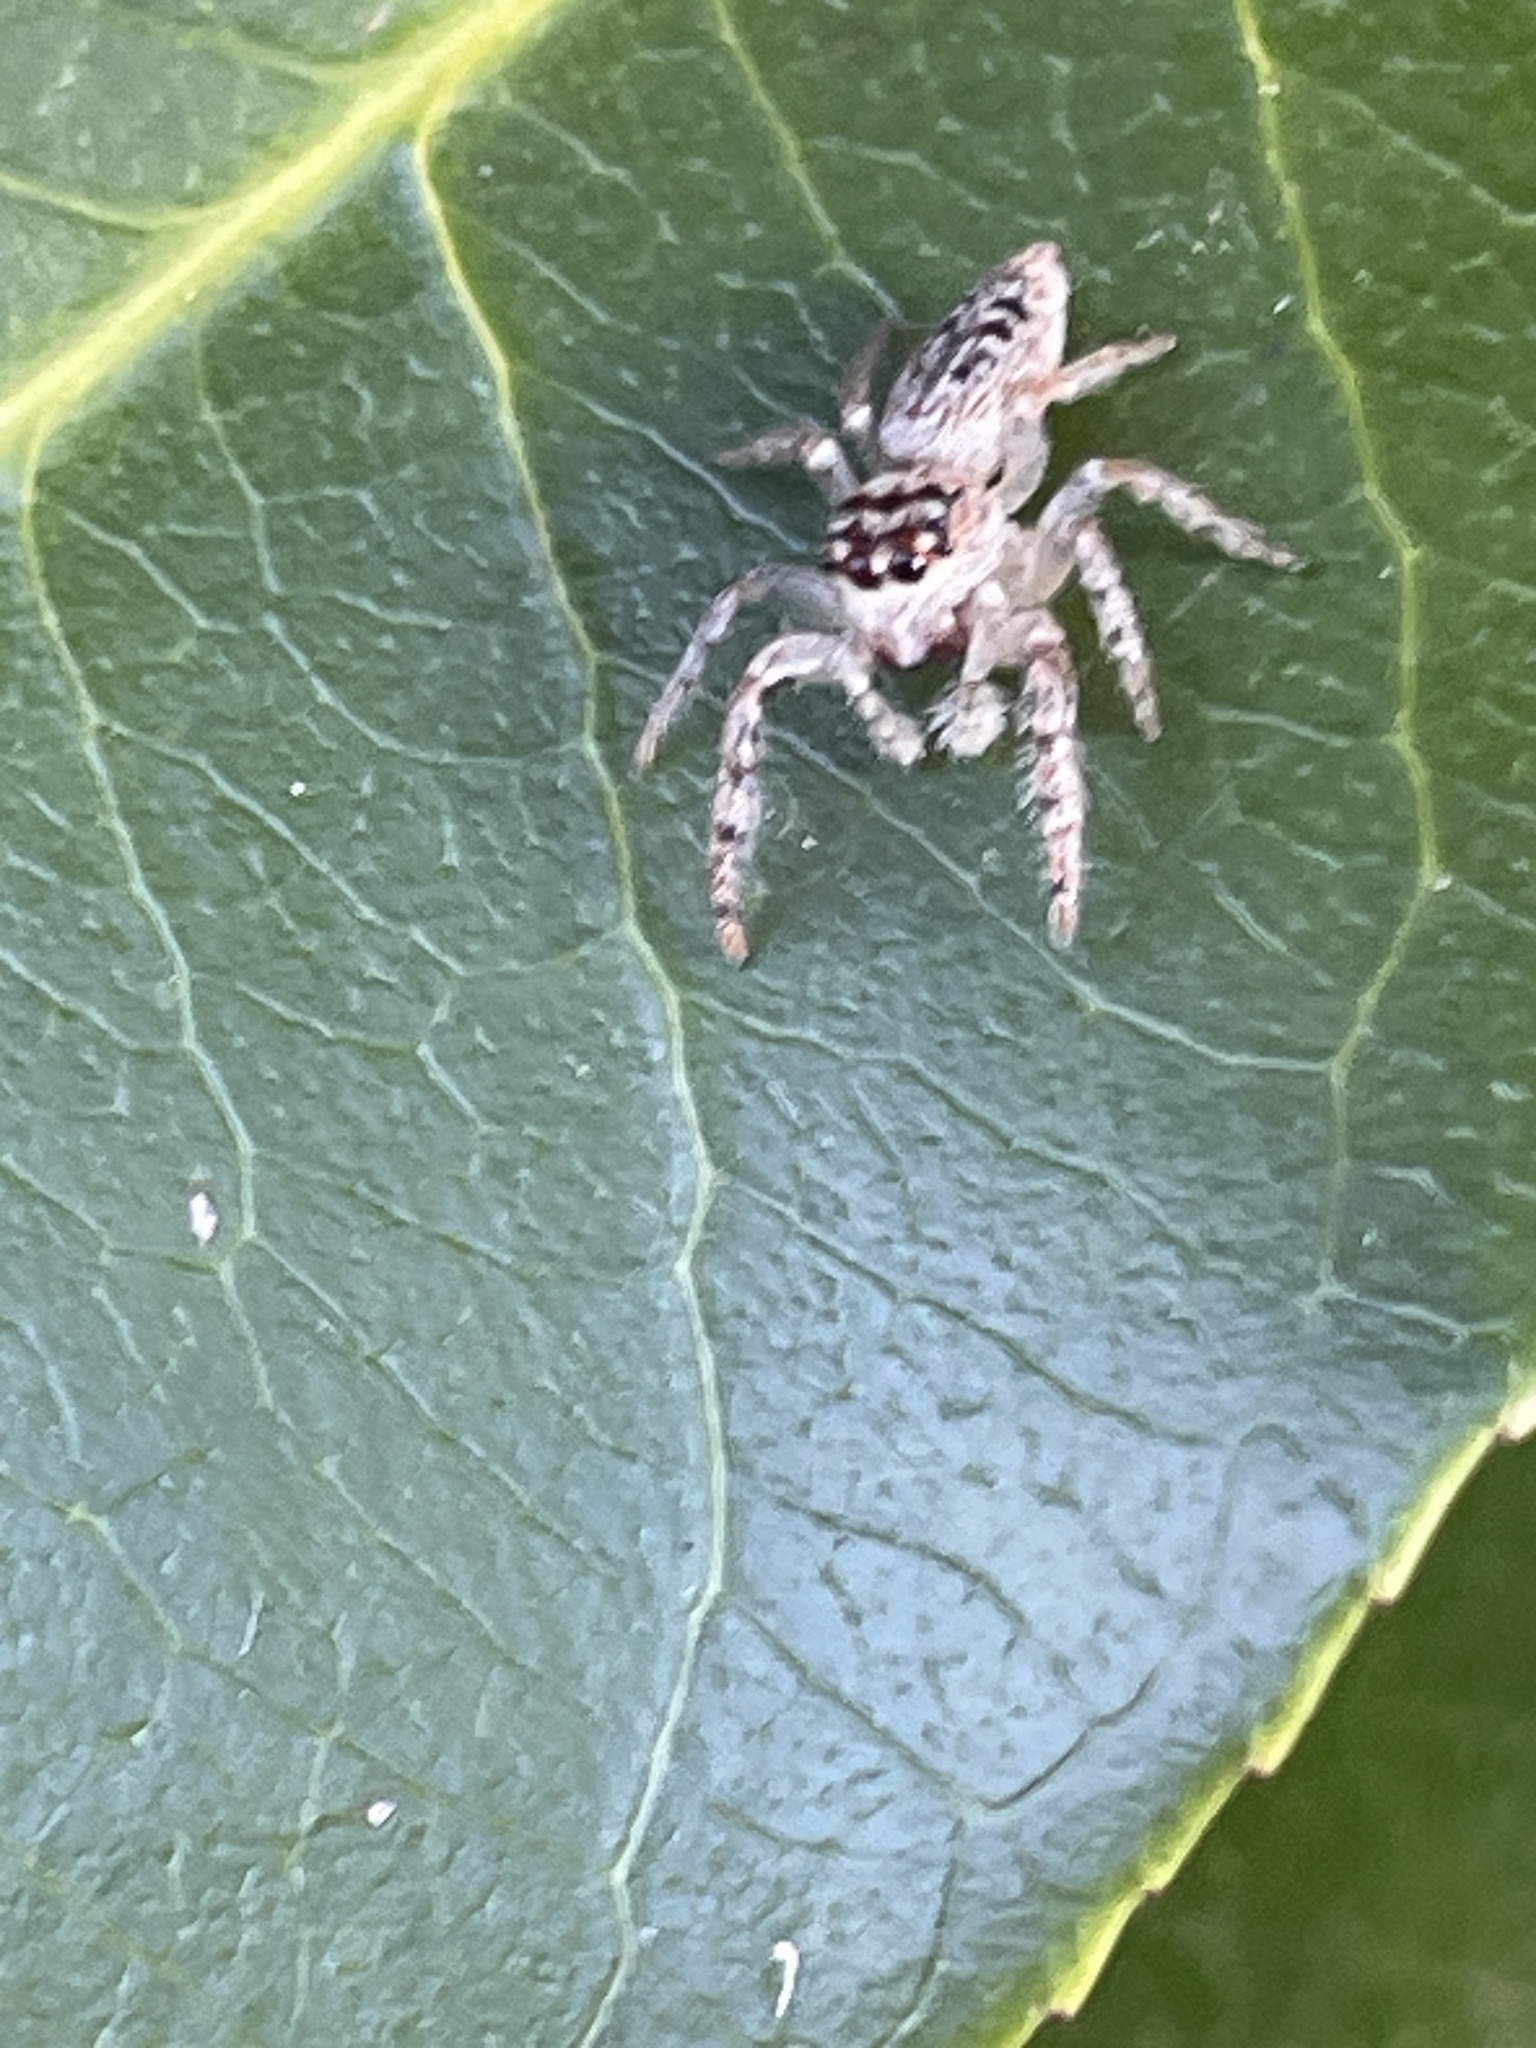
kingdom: Animalia
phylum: Arthropoda
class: Arachnida
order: Araneae
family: Salticidae
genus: Opisthoncus
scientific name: Opisthoncus quadratarius
